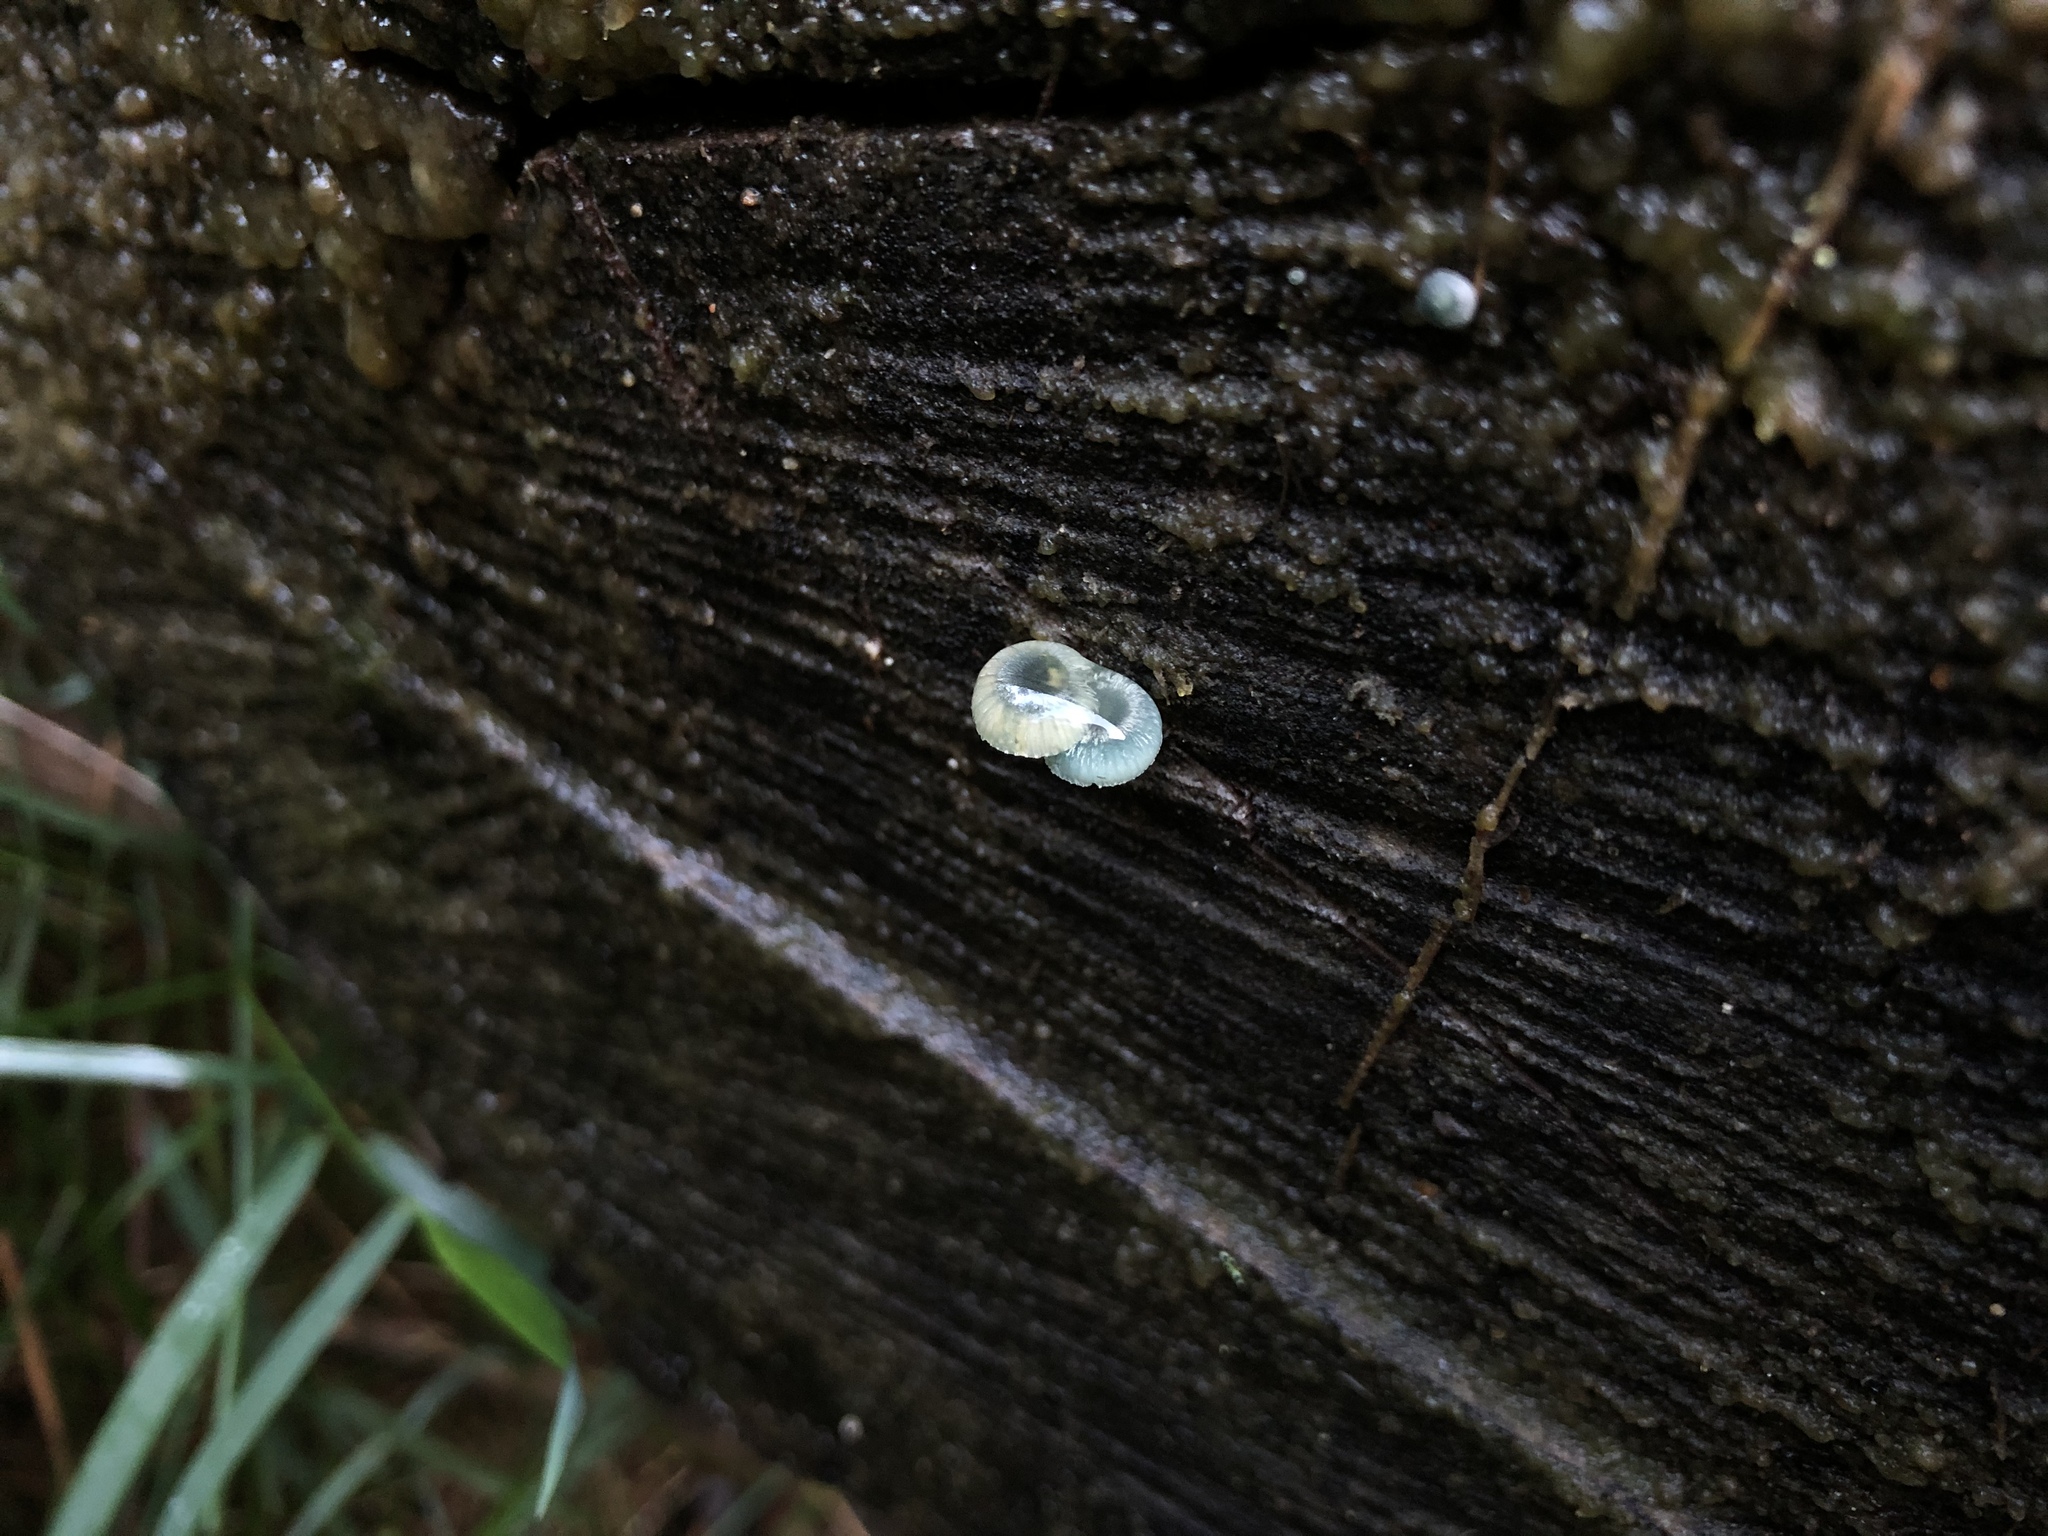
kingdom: Fungi
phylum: Basidiomycota
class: Agaricomycetes
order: Agaricales
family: Mycenaceae
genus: Mycena
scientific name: Mycena interrupta
